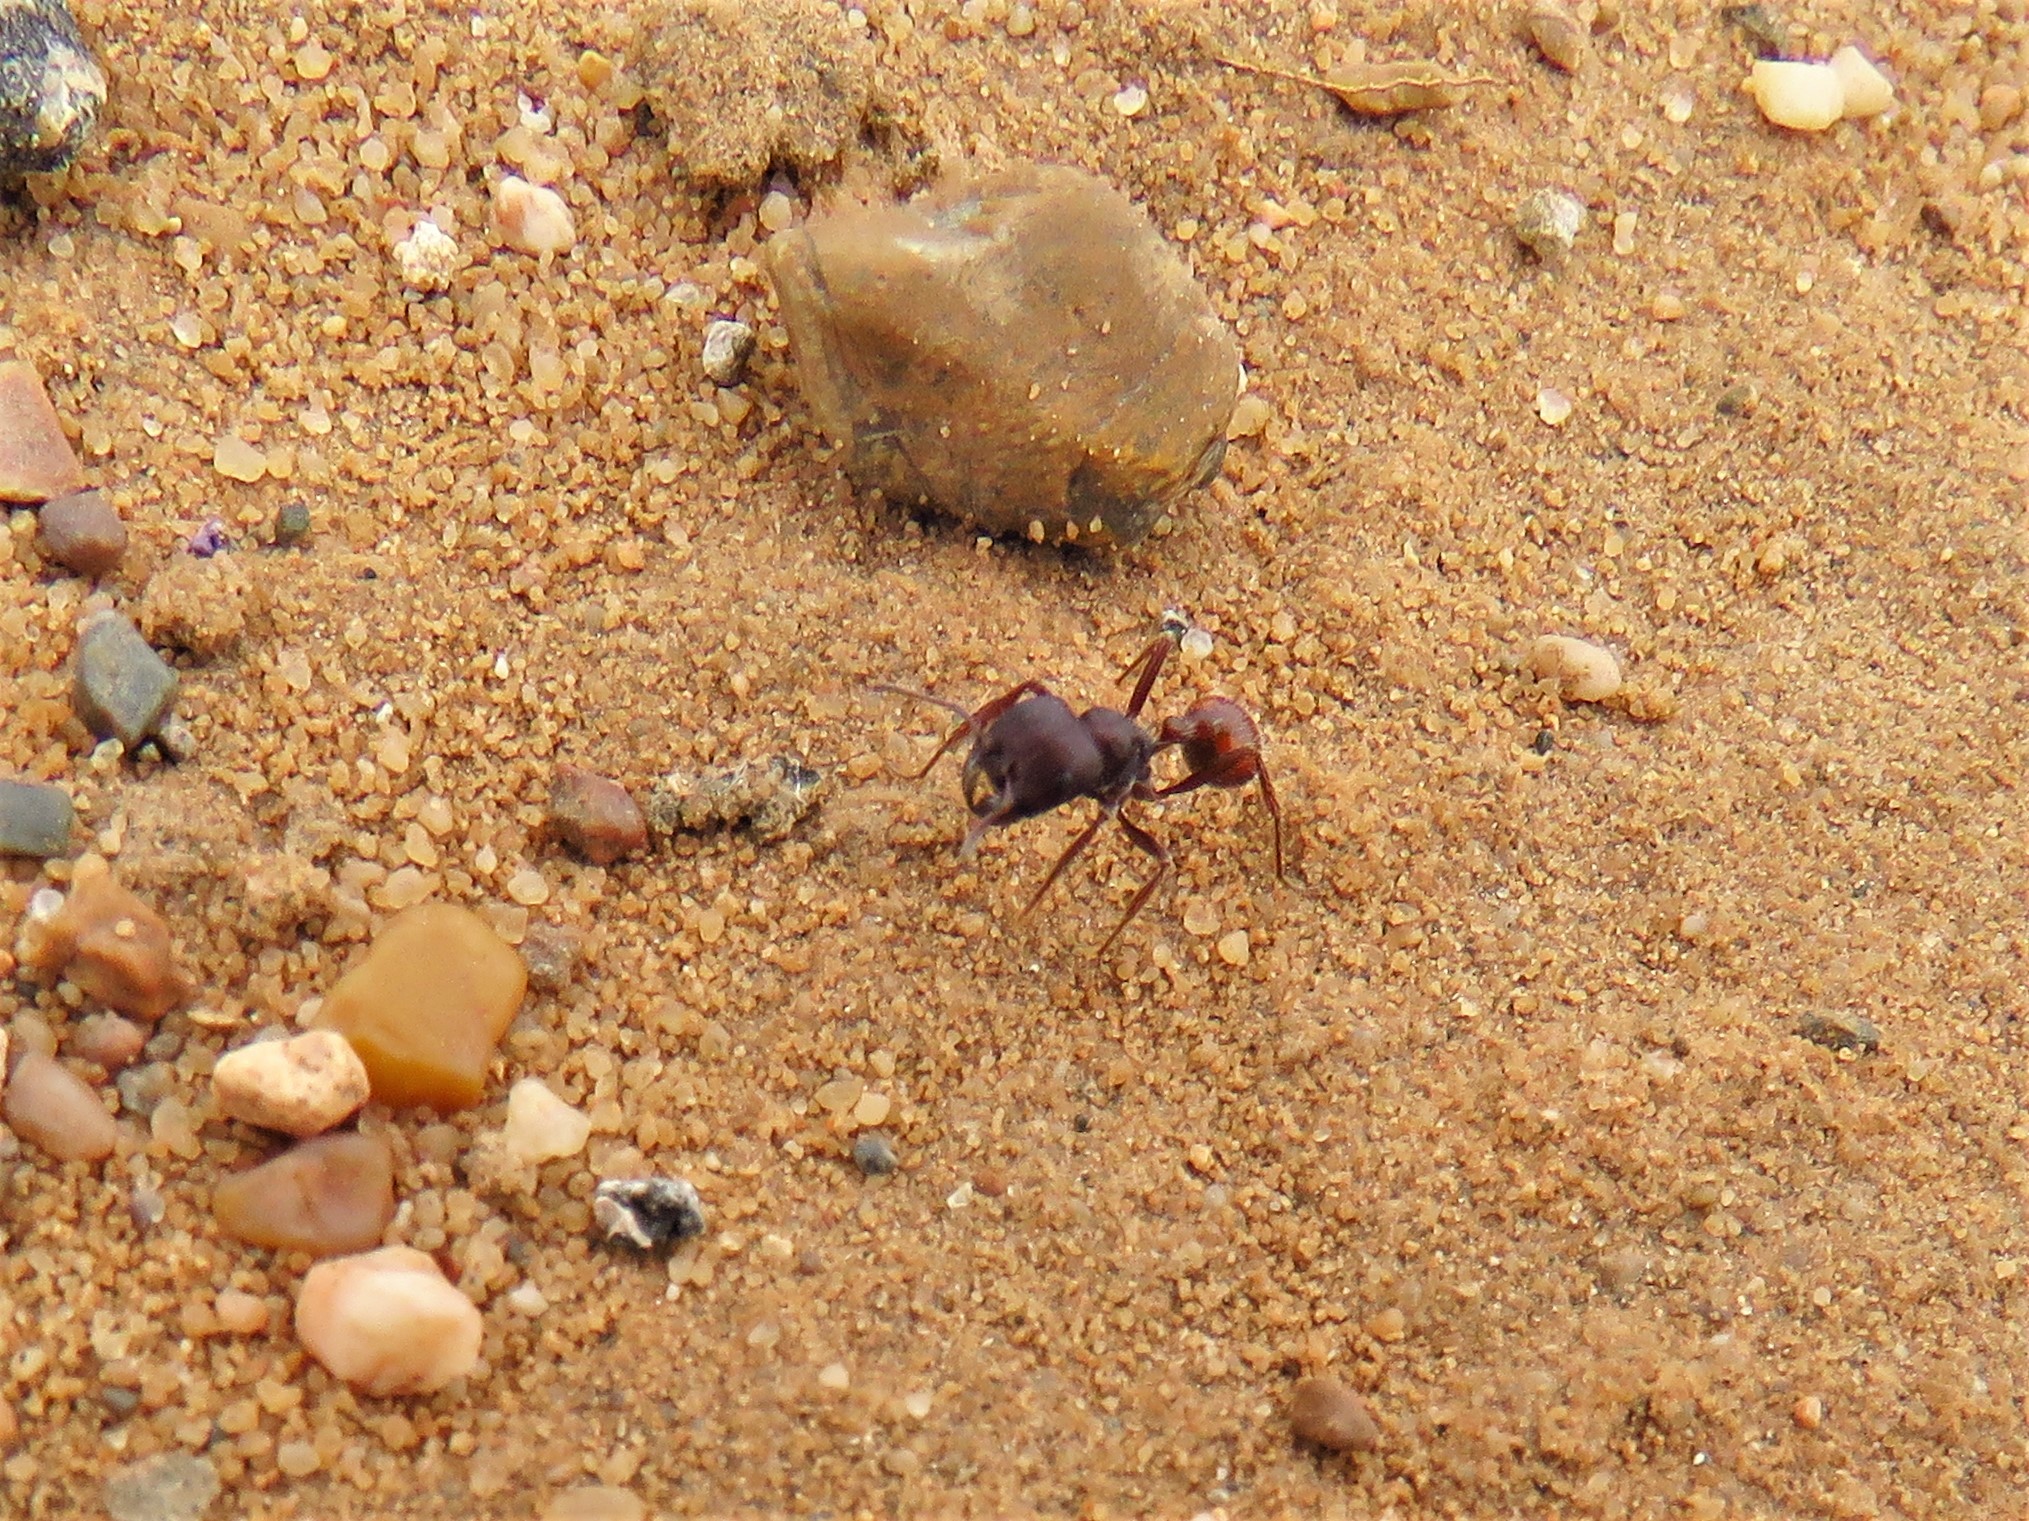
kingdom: Animalia
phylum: Arthropoda
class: Insecta
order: Hymenoptera
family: Formicidae
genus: Pogonomyrmex
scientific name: Pogonomyrmex rugosus
